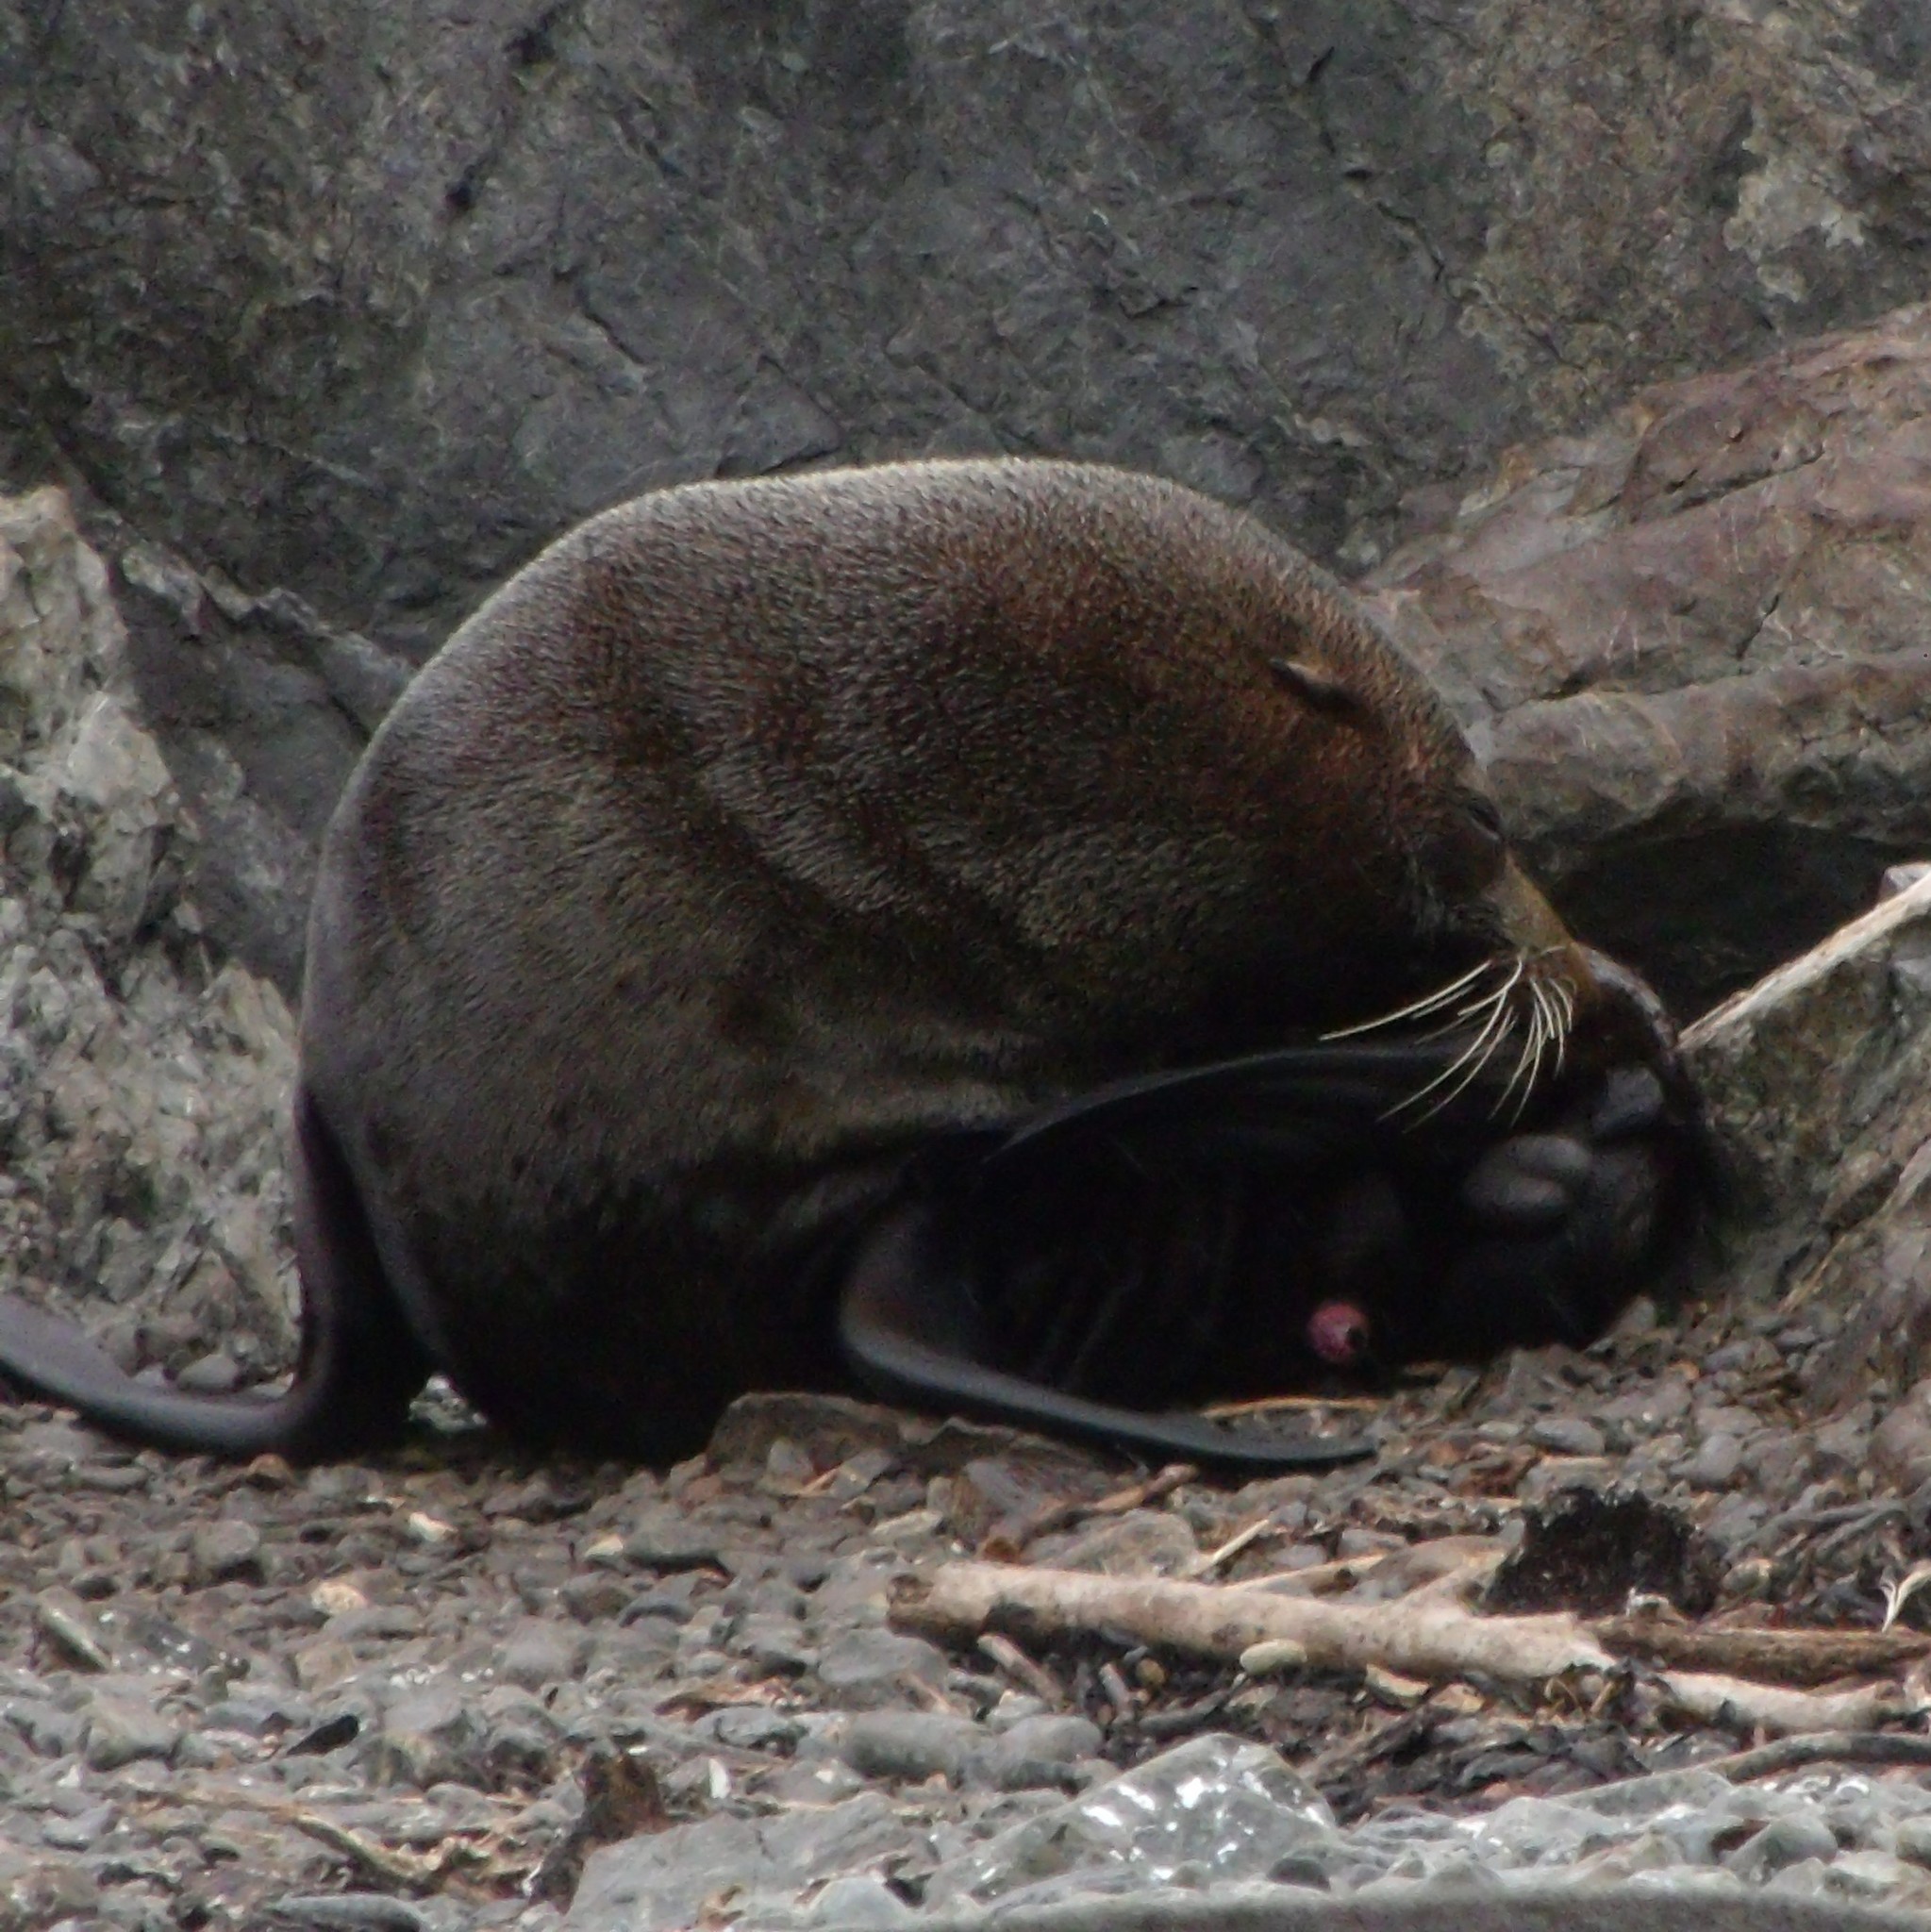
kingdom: Animalia
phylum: Chordata
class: Mammalia
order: Carnivora
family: Otariidae
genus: Arctocephalus
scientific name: Arctocephalus forsteri
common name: New zealand fur seal
